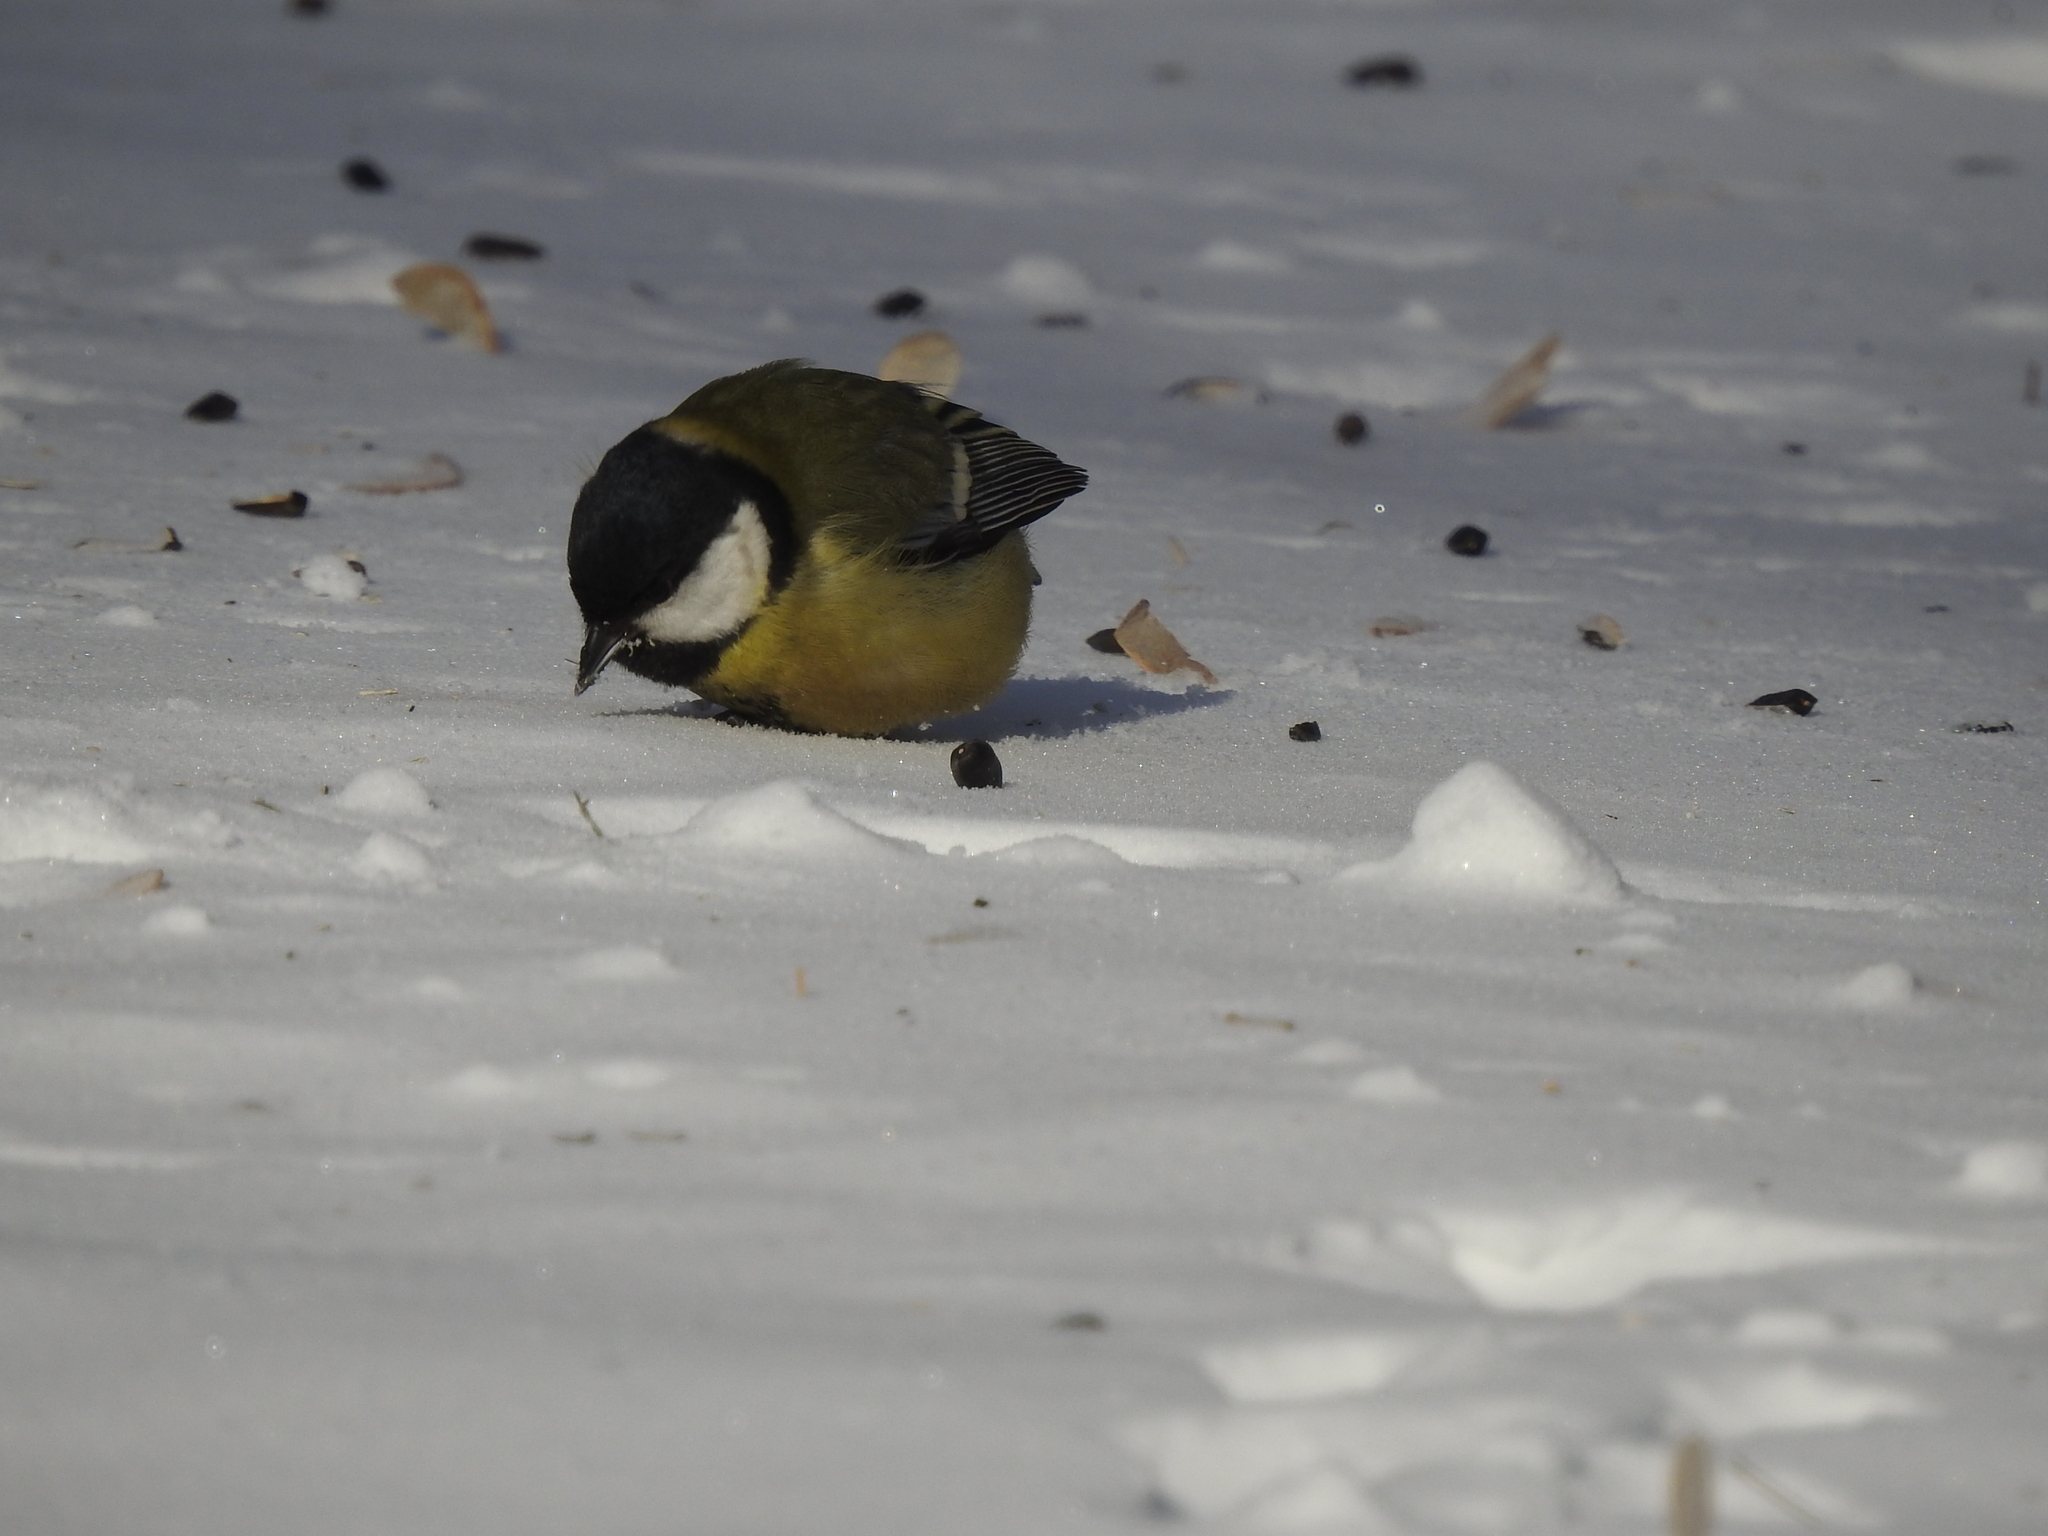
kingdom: Animalia
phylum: Chordata
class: Aves
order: Passeriformes
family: Paridae
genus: Parus
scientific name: Parus major
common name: Great tit
